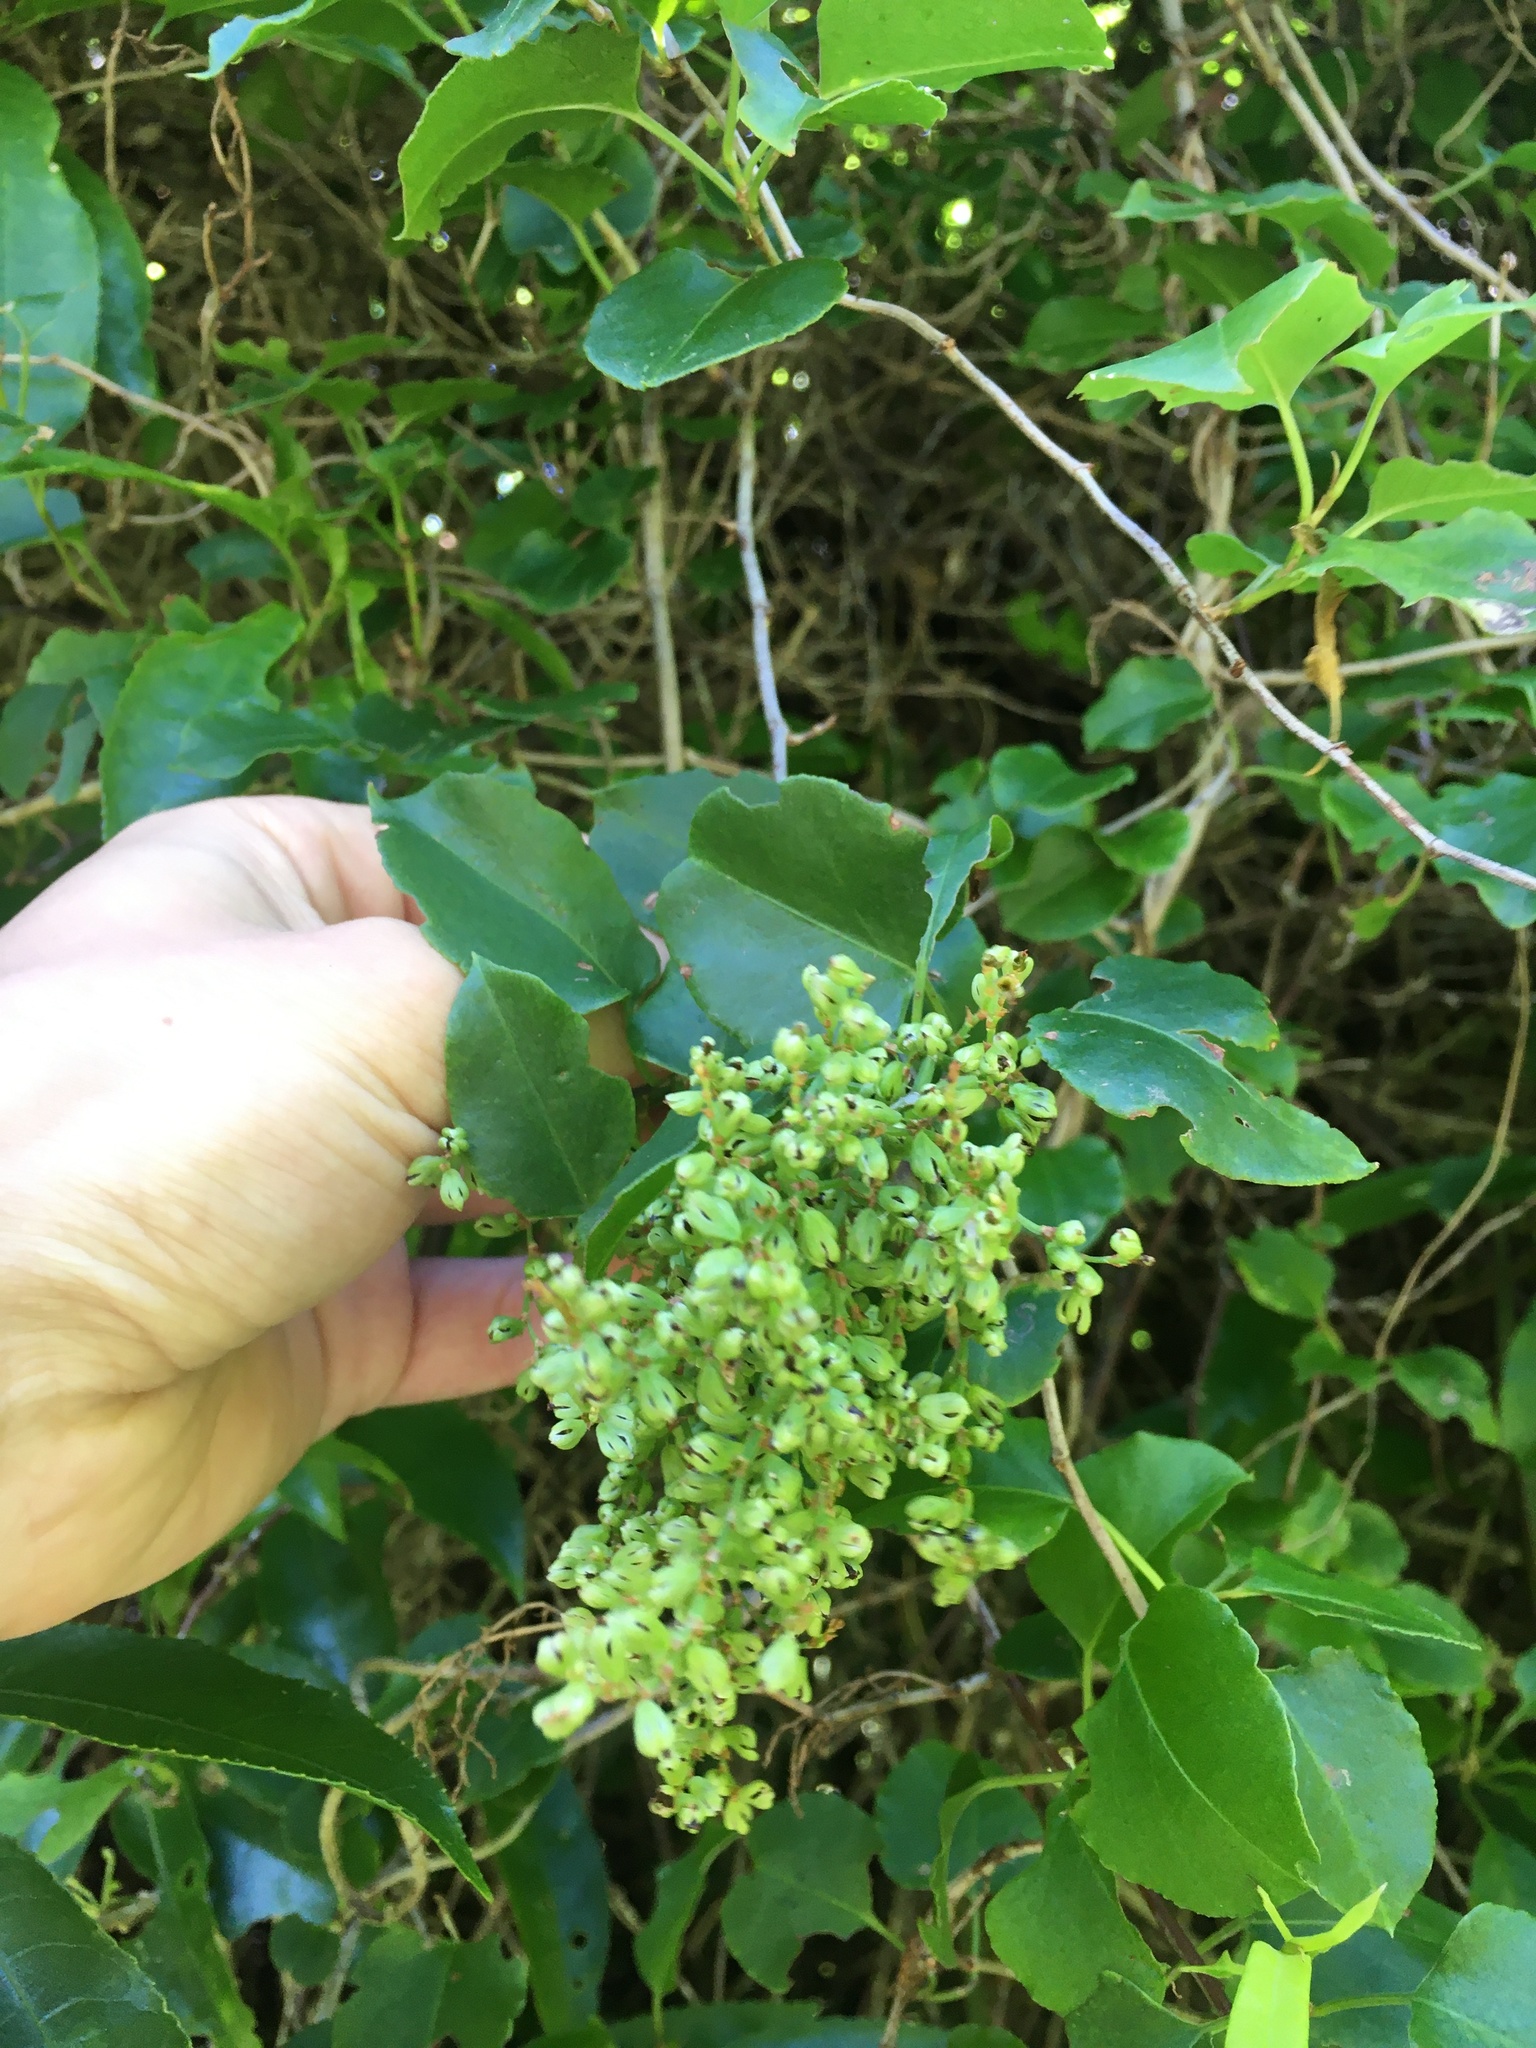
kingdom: Plantae
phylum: Tracheophyta
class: Magnoliopsida
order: Caryophyllales
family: Polygonaceae
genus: Muehlenbeckia
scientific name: Muehlenbeckia australis
